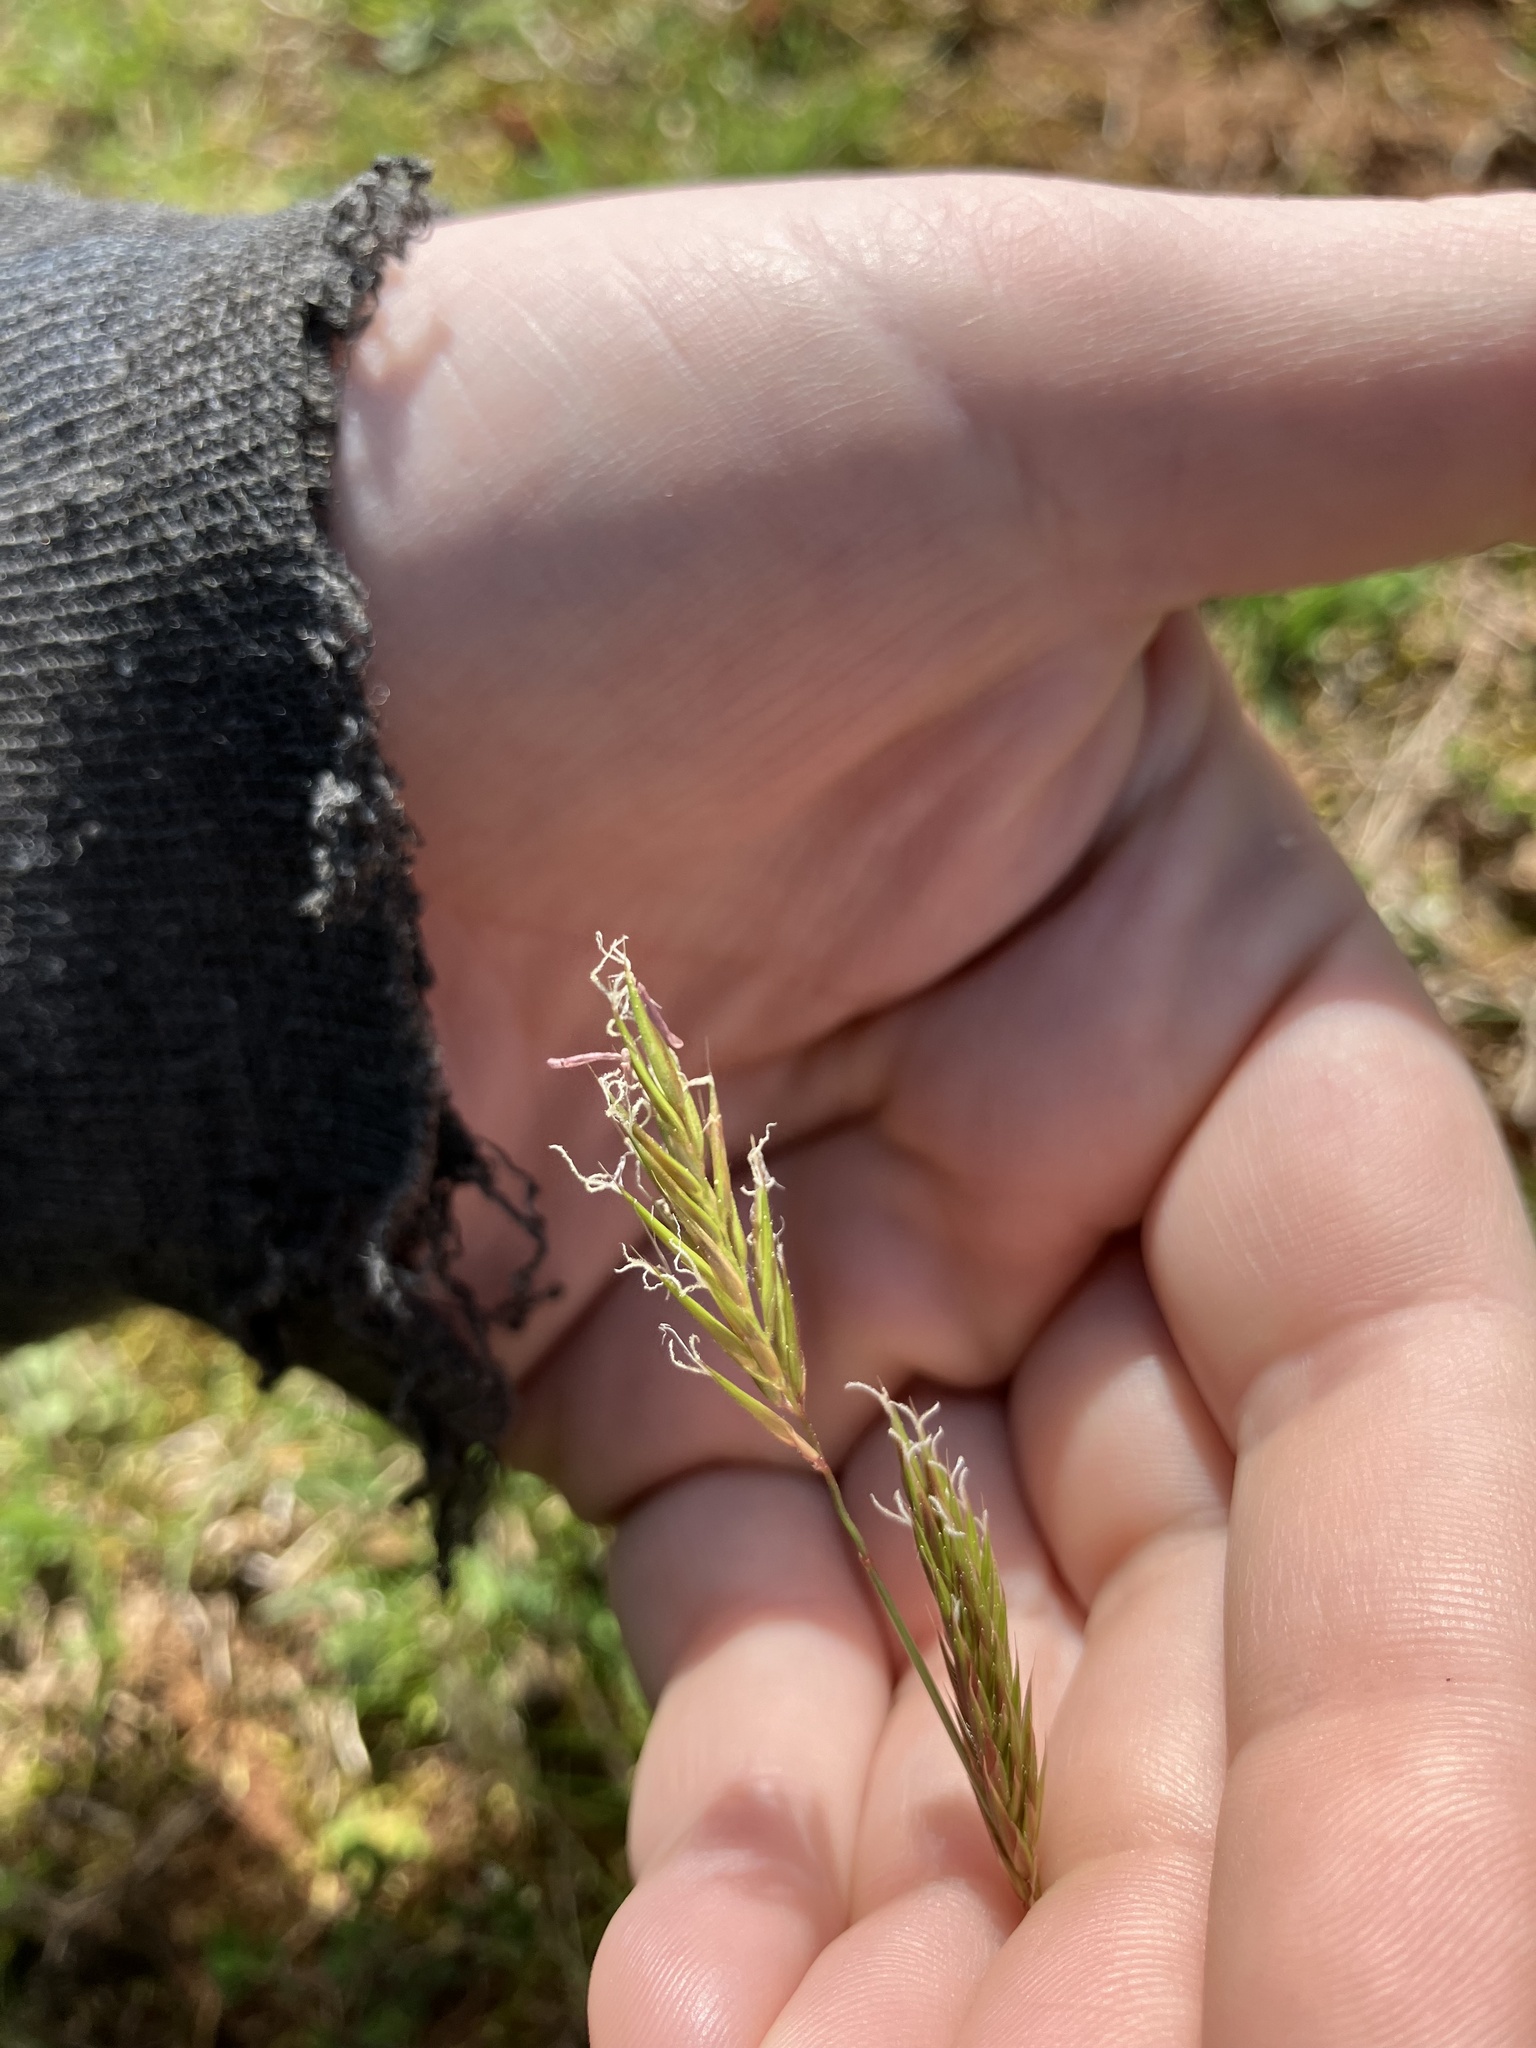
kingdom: Plantae
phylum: Tracheophyta
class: Liliopsida
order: Poales
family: Poaceae
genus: Anthoxanthum
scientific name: Anthoxanthum odoratum
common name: Sweet vernalgrass
